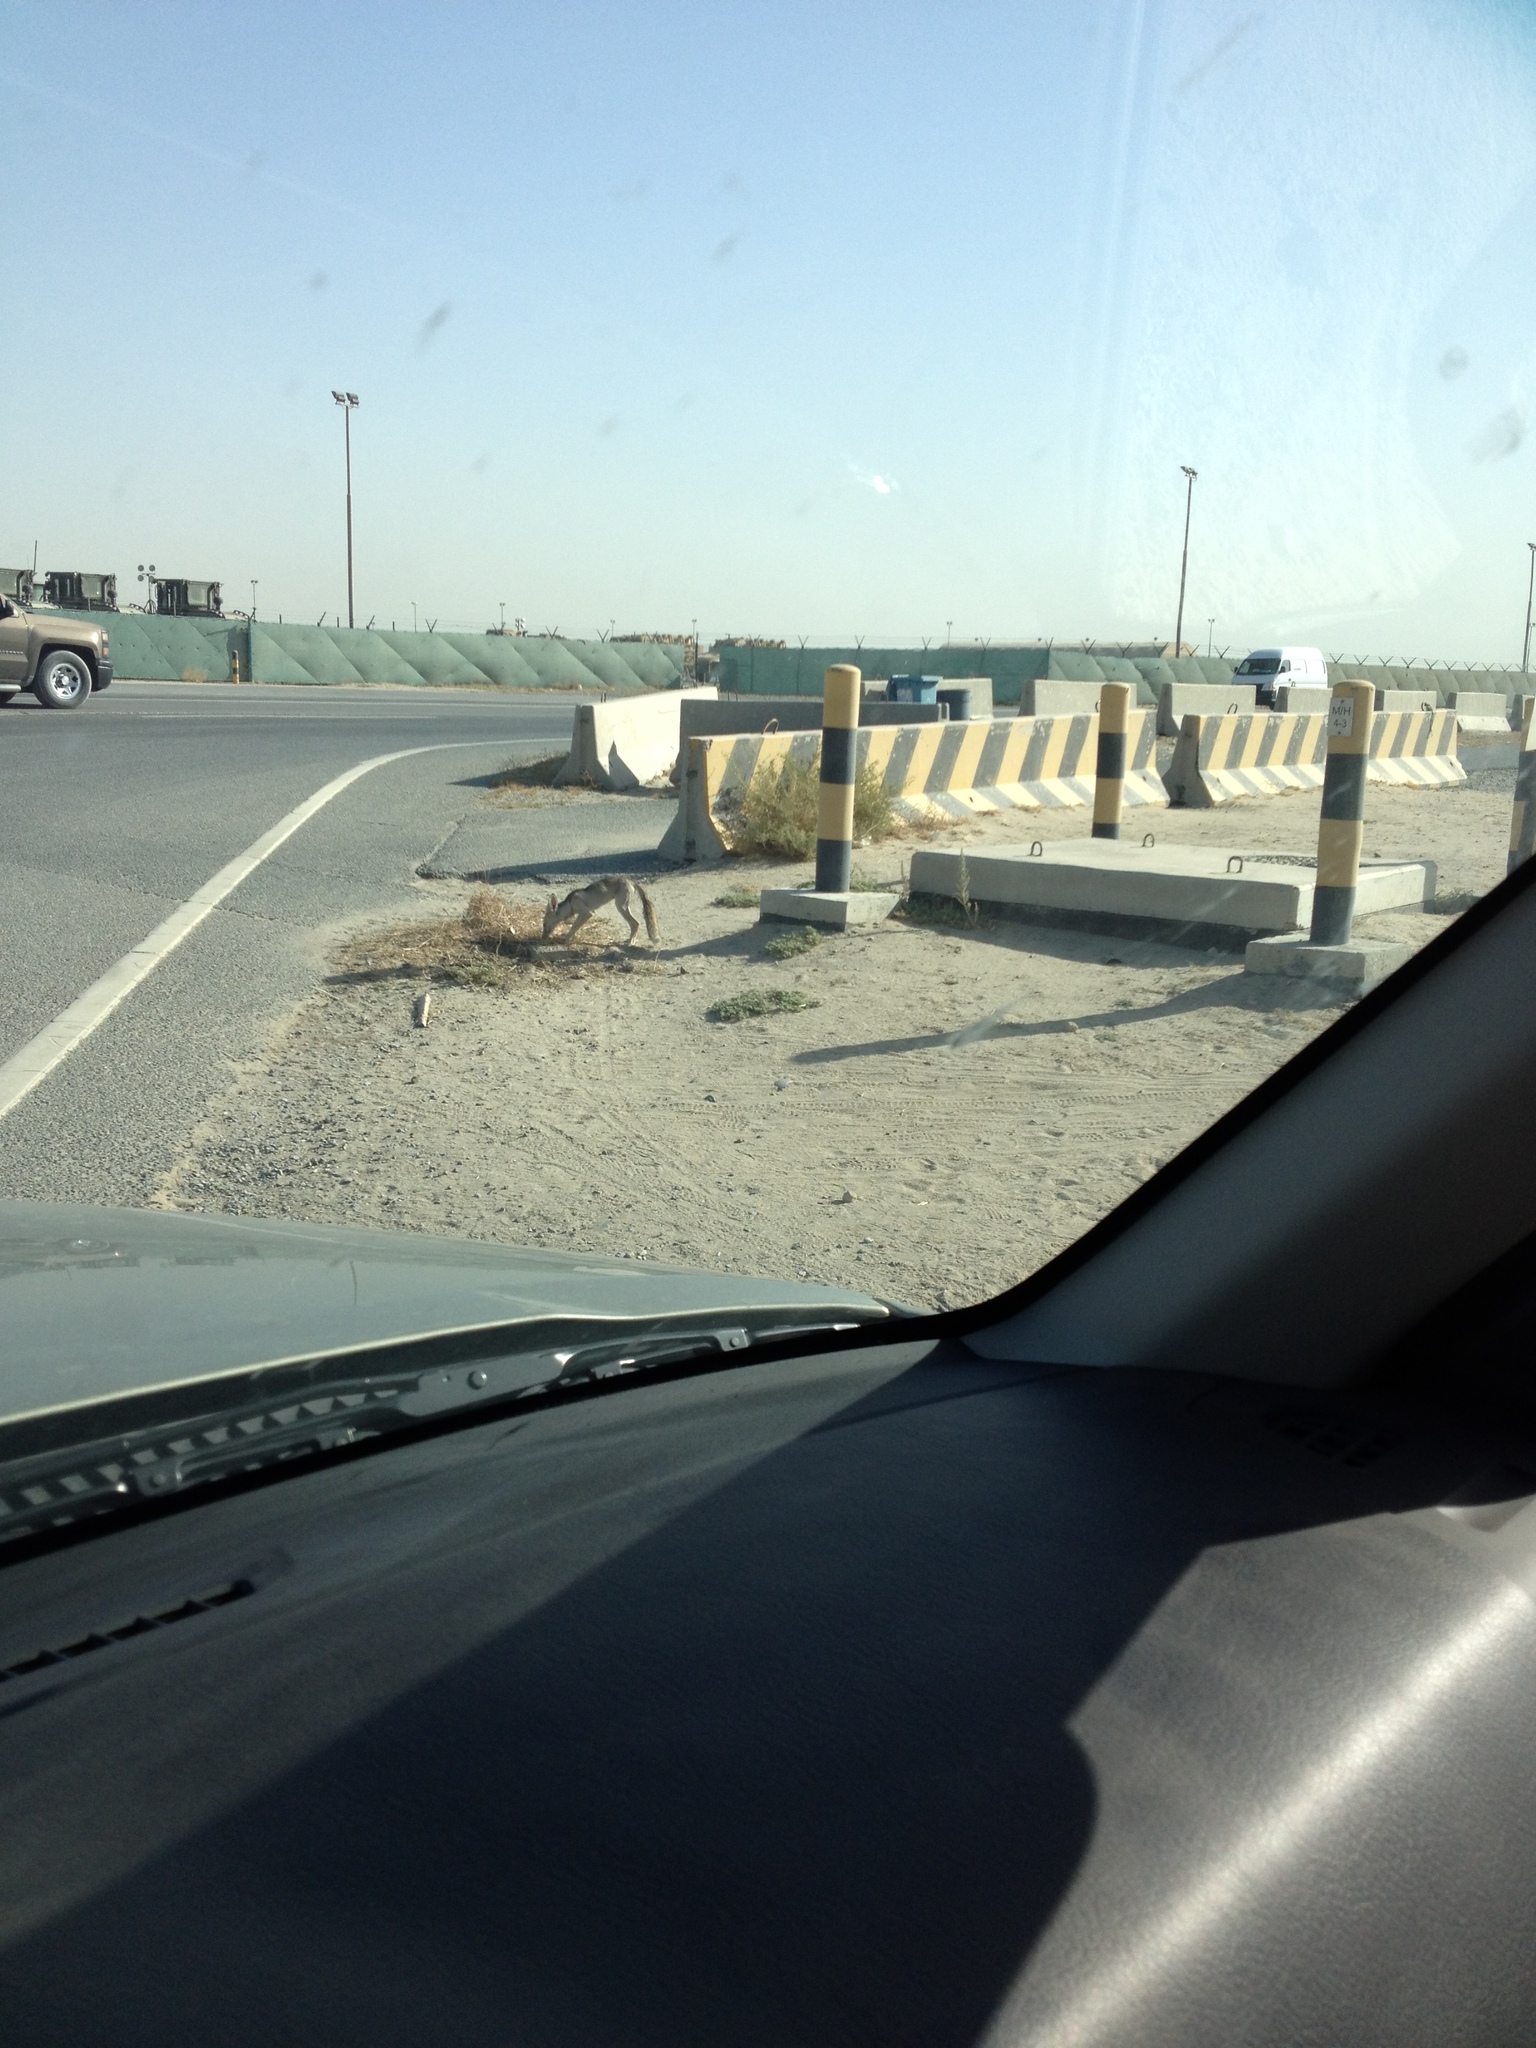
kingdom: Animalia
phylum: Chordata
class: Mammalia
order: Carnivora
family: Canidae
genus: Vulpes
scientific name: Vulpes vulpes
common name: Red fox
